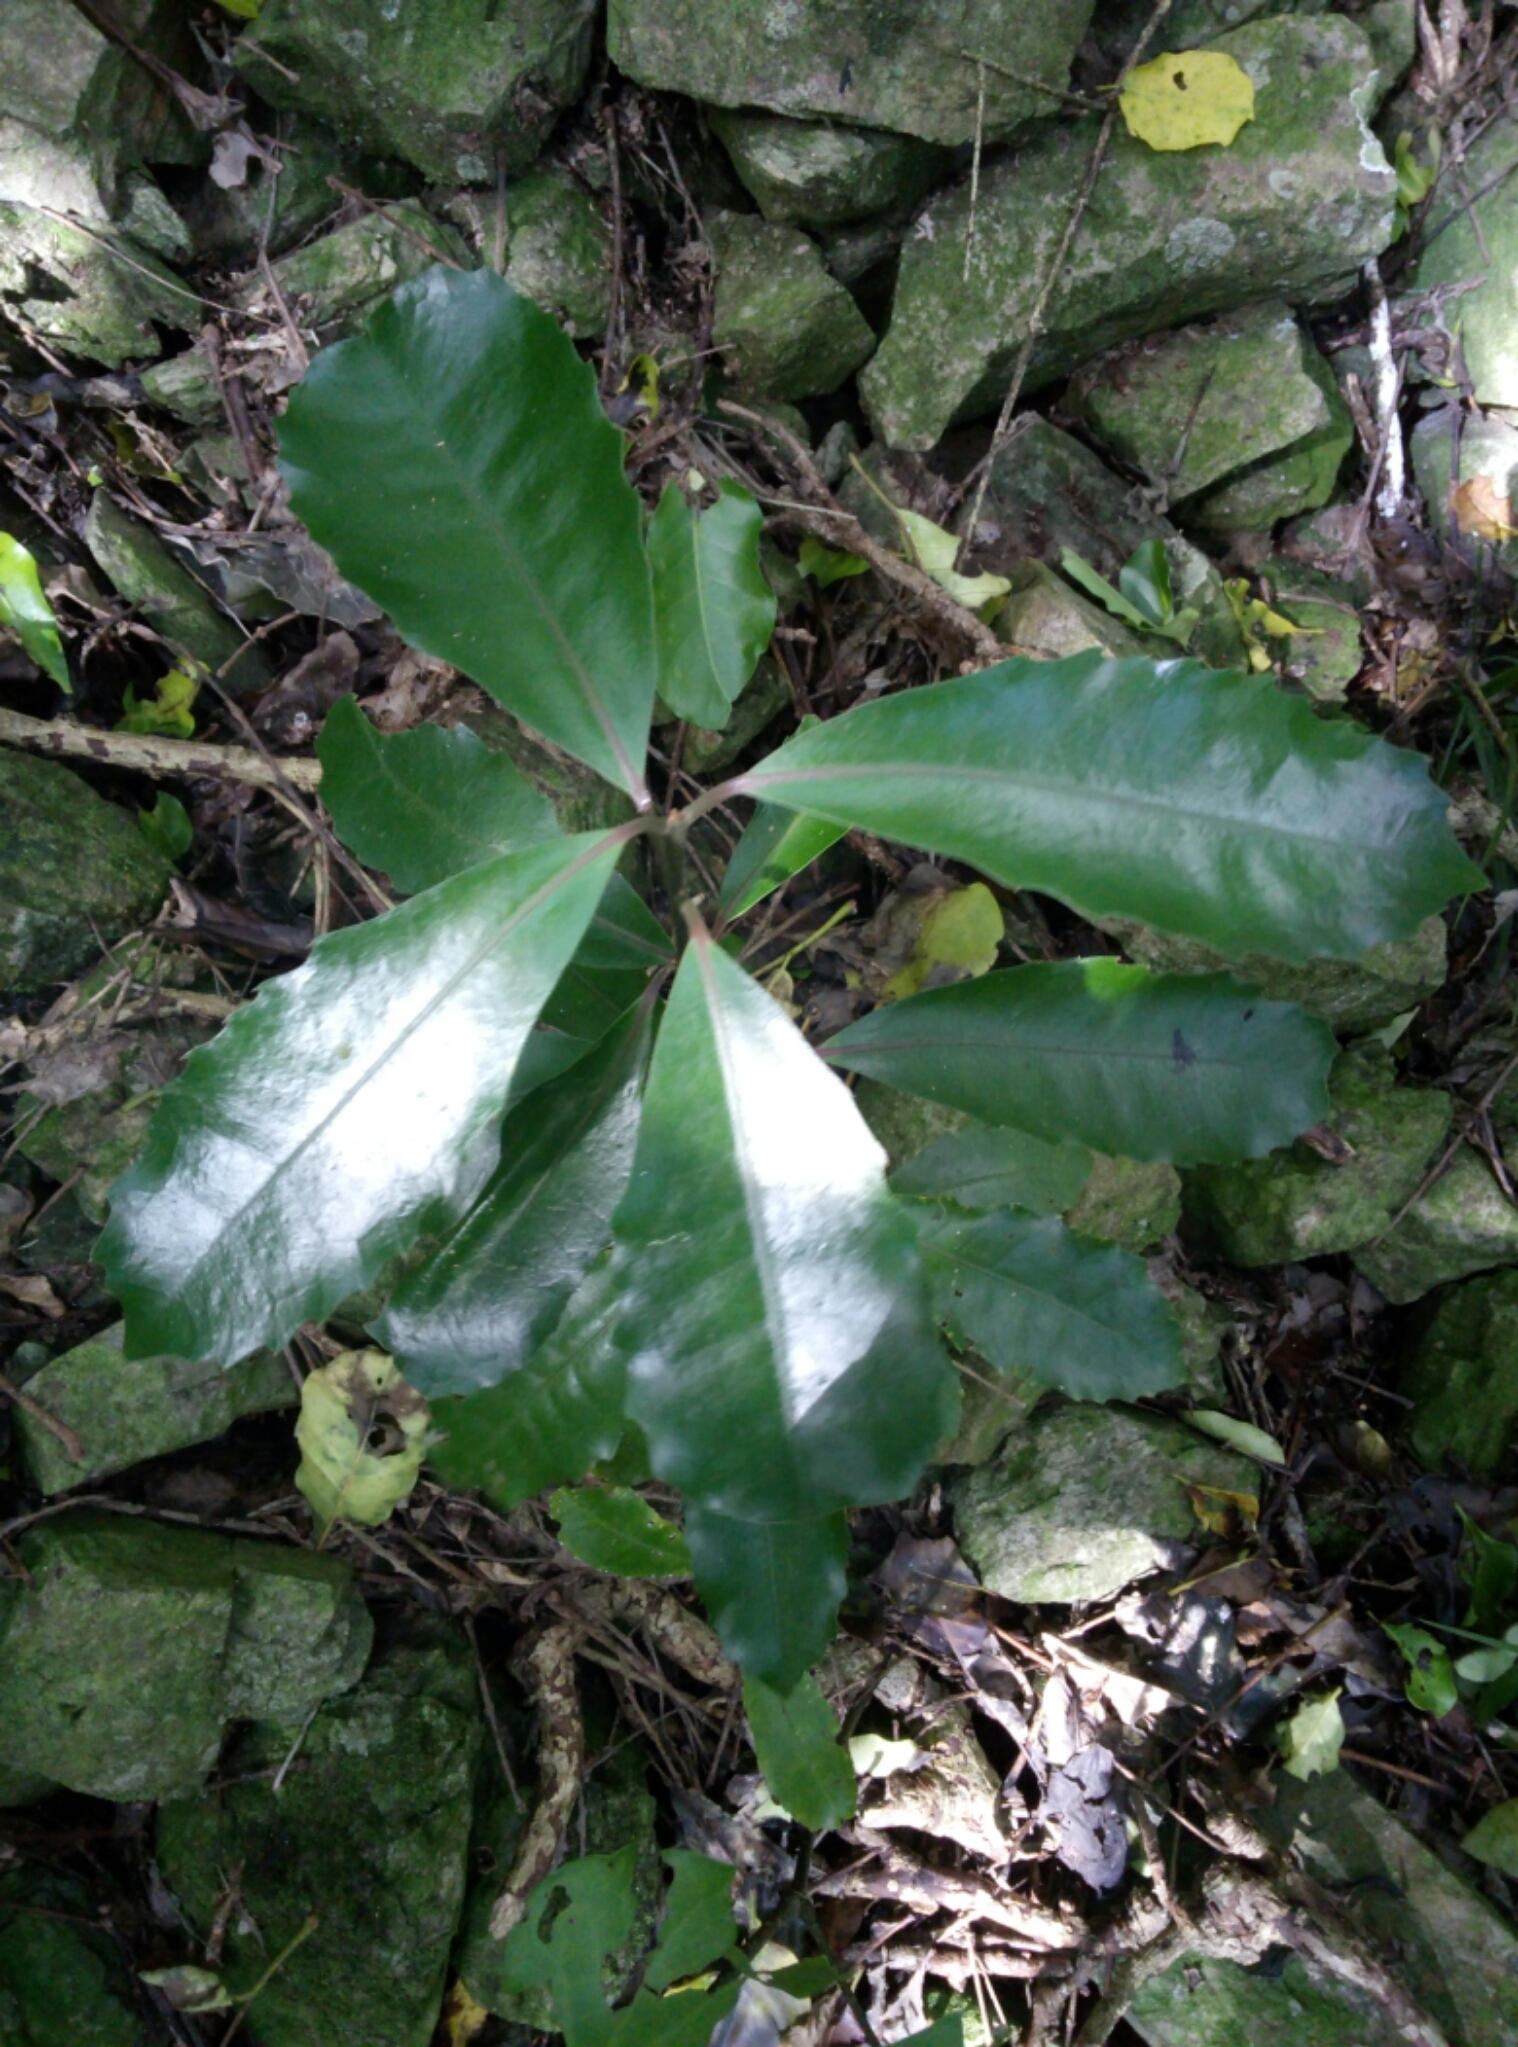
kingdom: Plantae
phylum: Tracheophyta
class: Magnoliopsida
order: Laurales
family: Monimiaceae
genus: Hedycarya
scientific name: Hedycarya arborea
